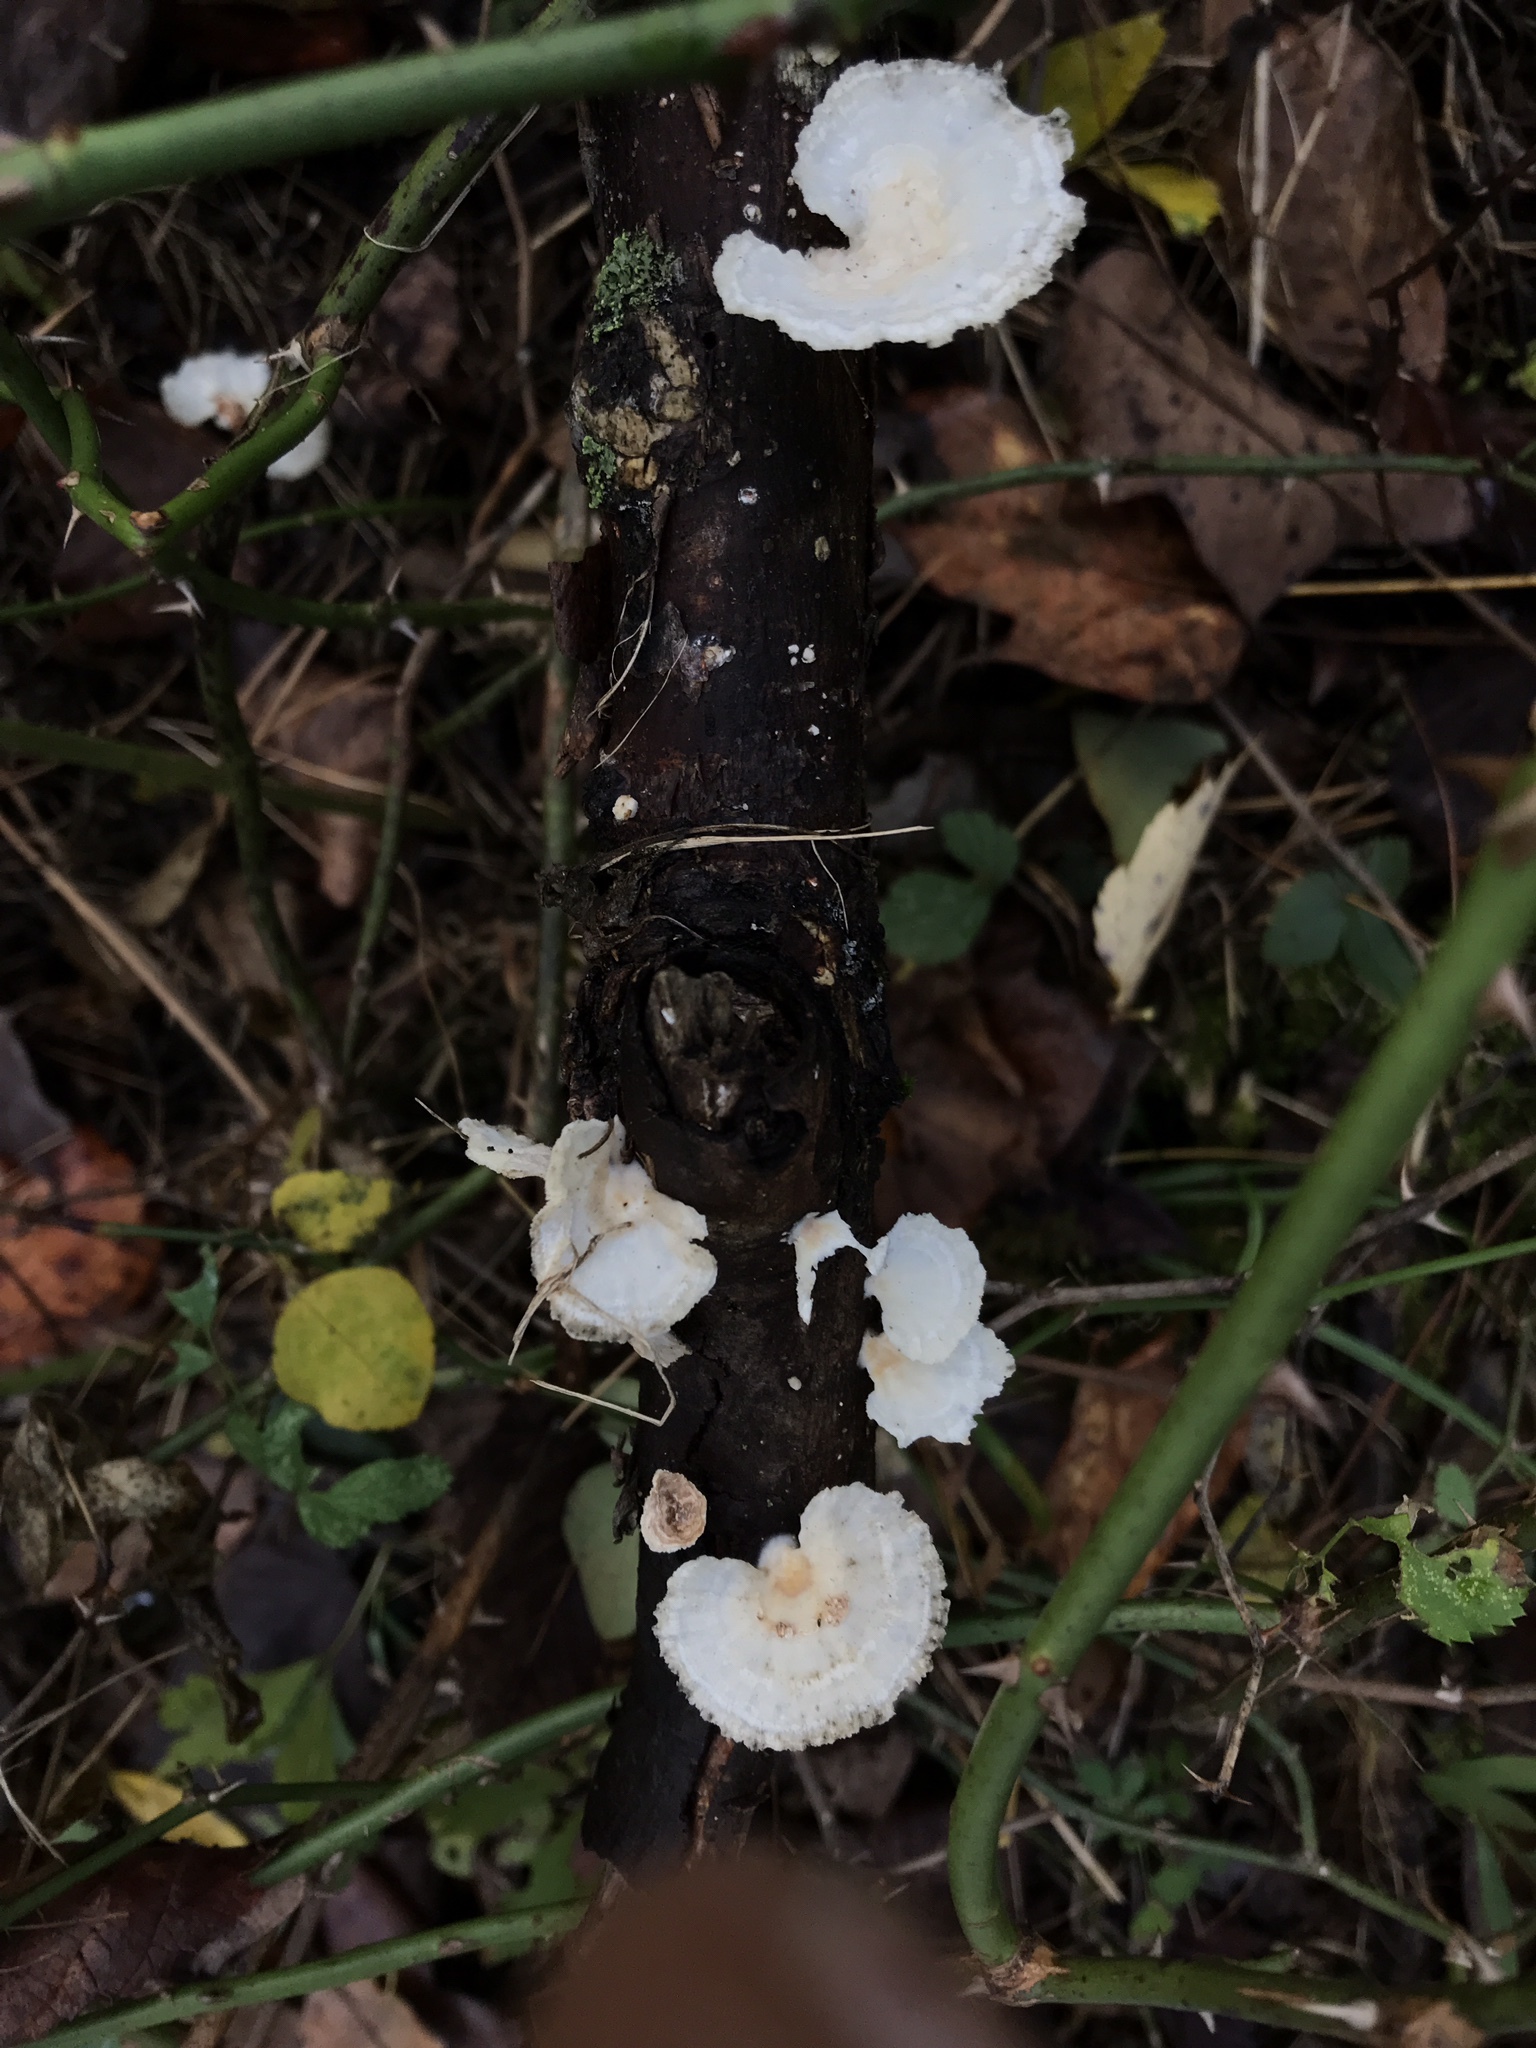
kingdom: Fungi
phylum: Basidiomycota
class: Agaricomycetes
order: Polyporales
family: Polyporaceae
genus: Poronidulus
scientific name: Poronidulus conchifer
